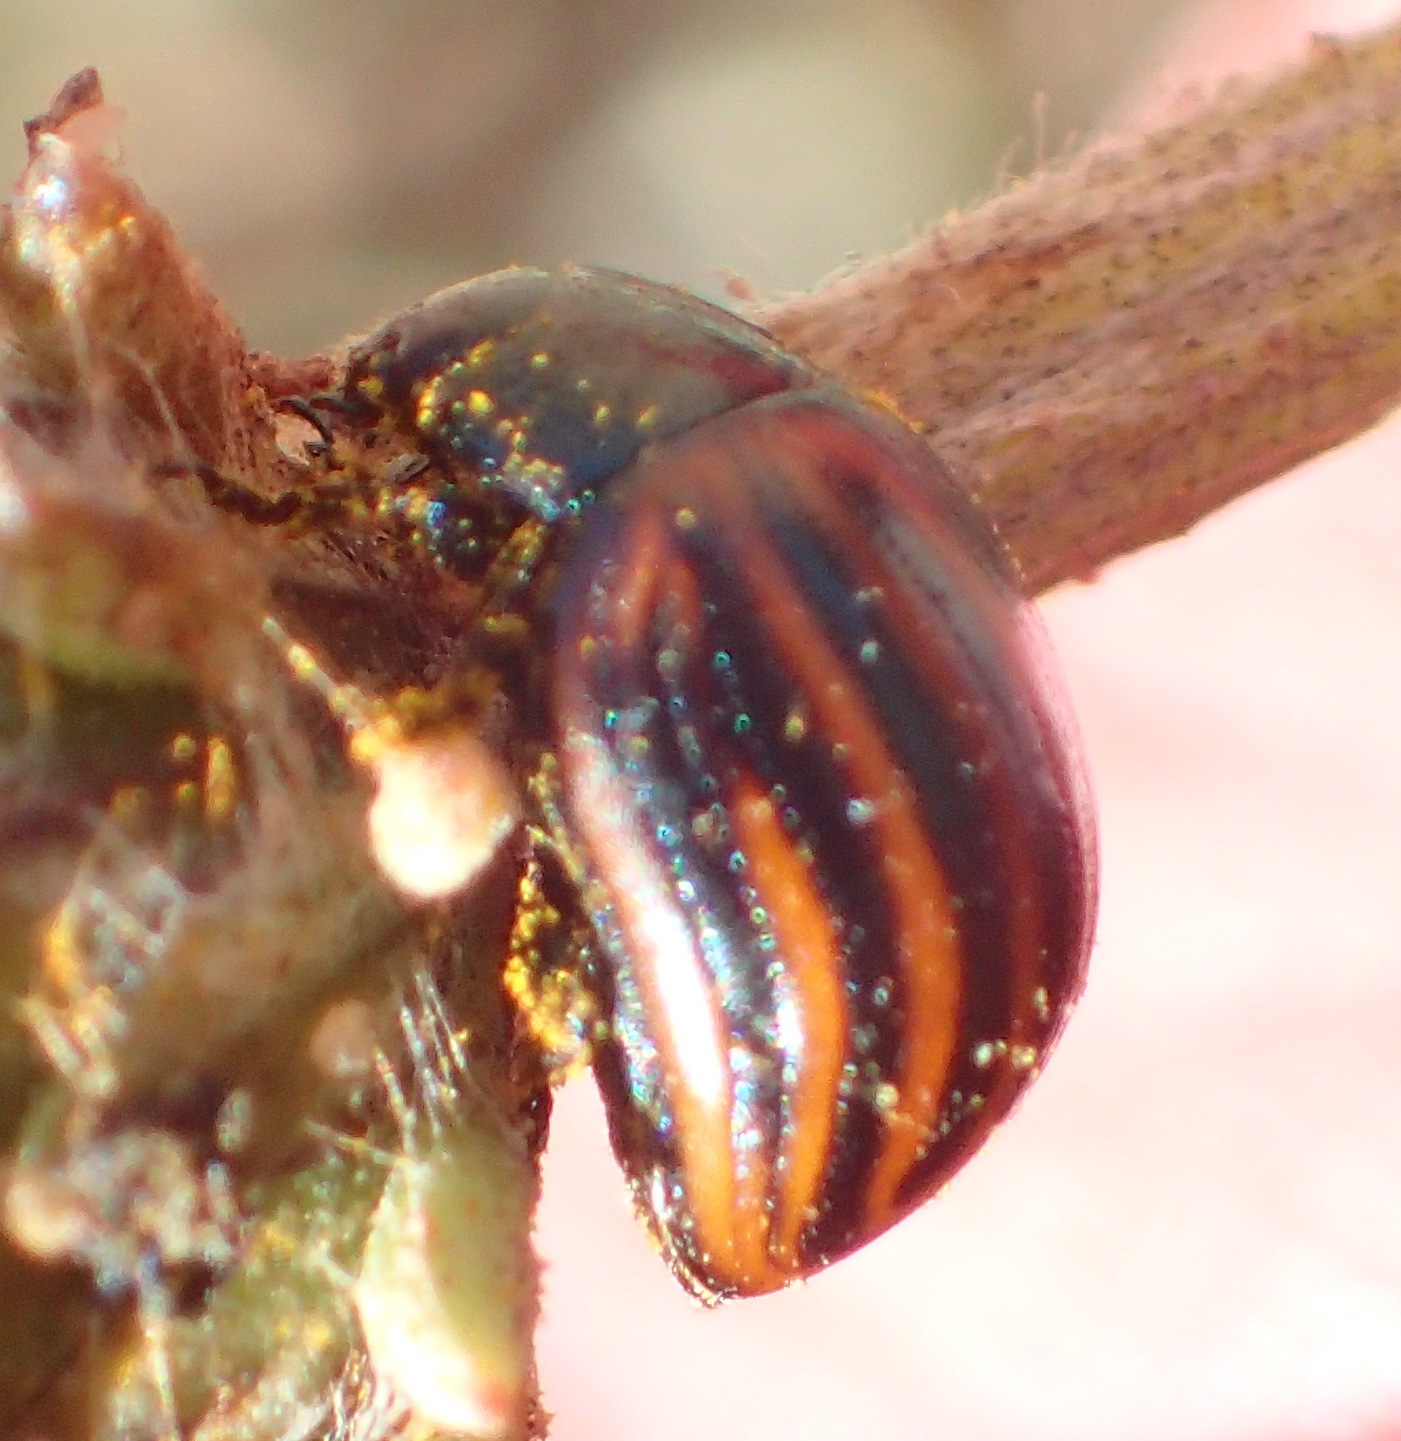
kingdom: Animalia
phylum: Arthropoda
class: Insecta
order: Coleoptera
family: Chrysomelidae
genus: Chrysolina
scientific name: Chrysolina
